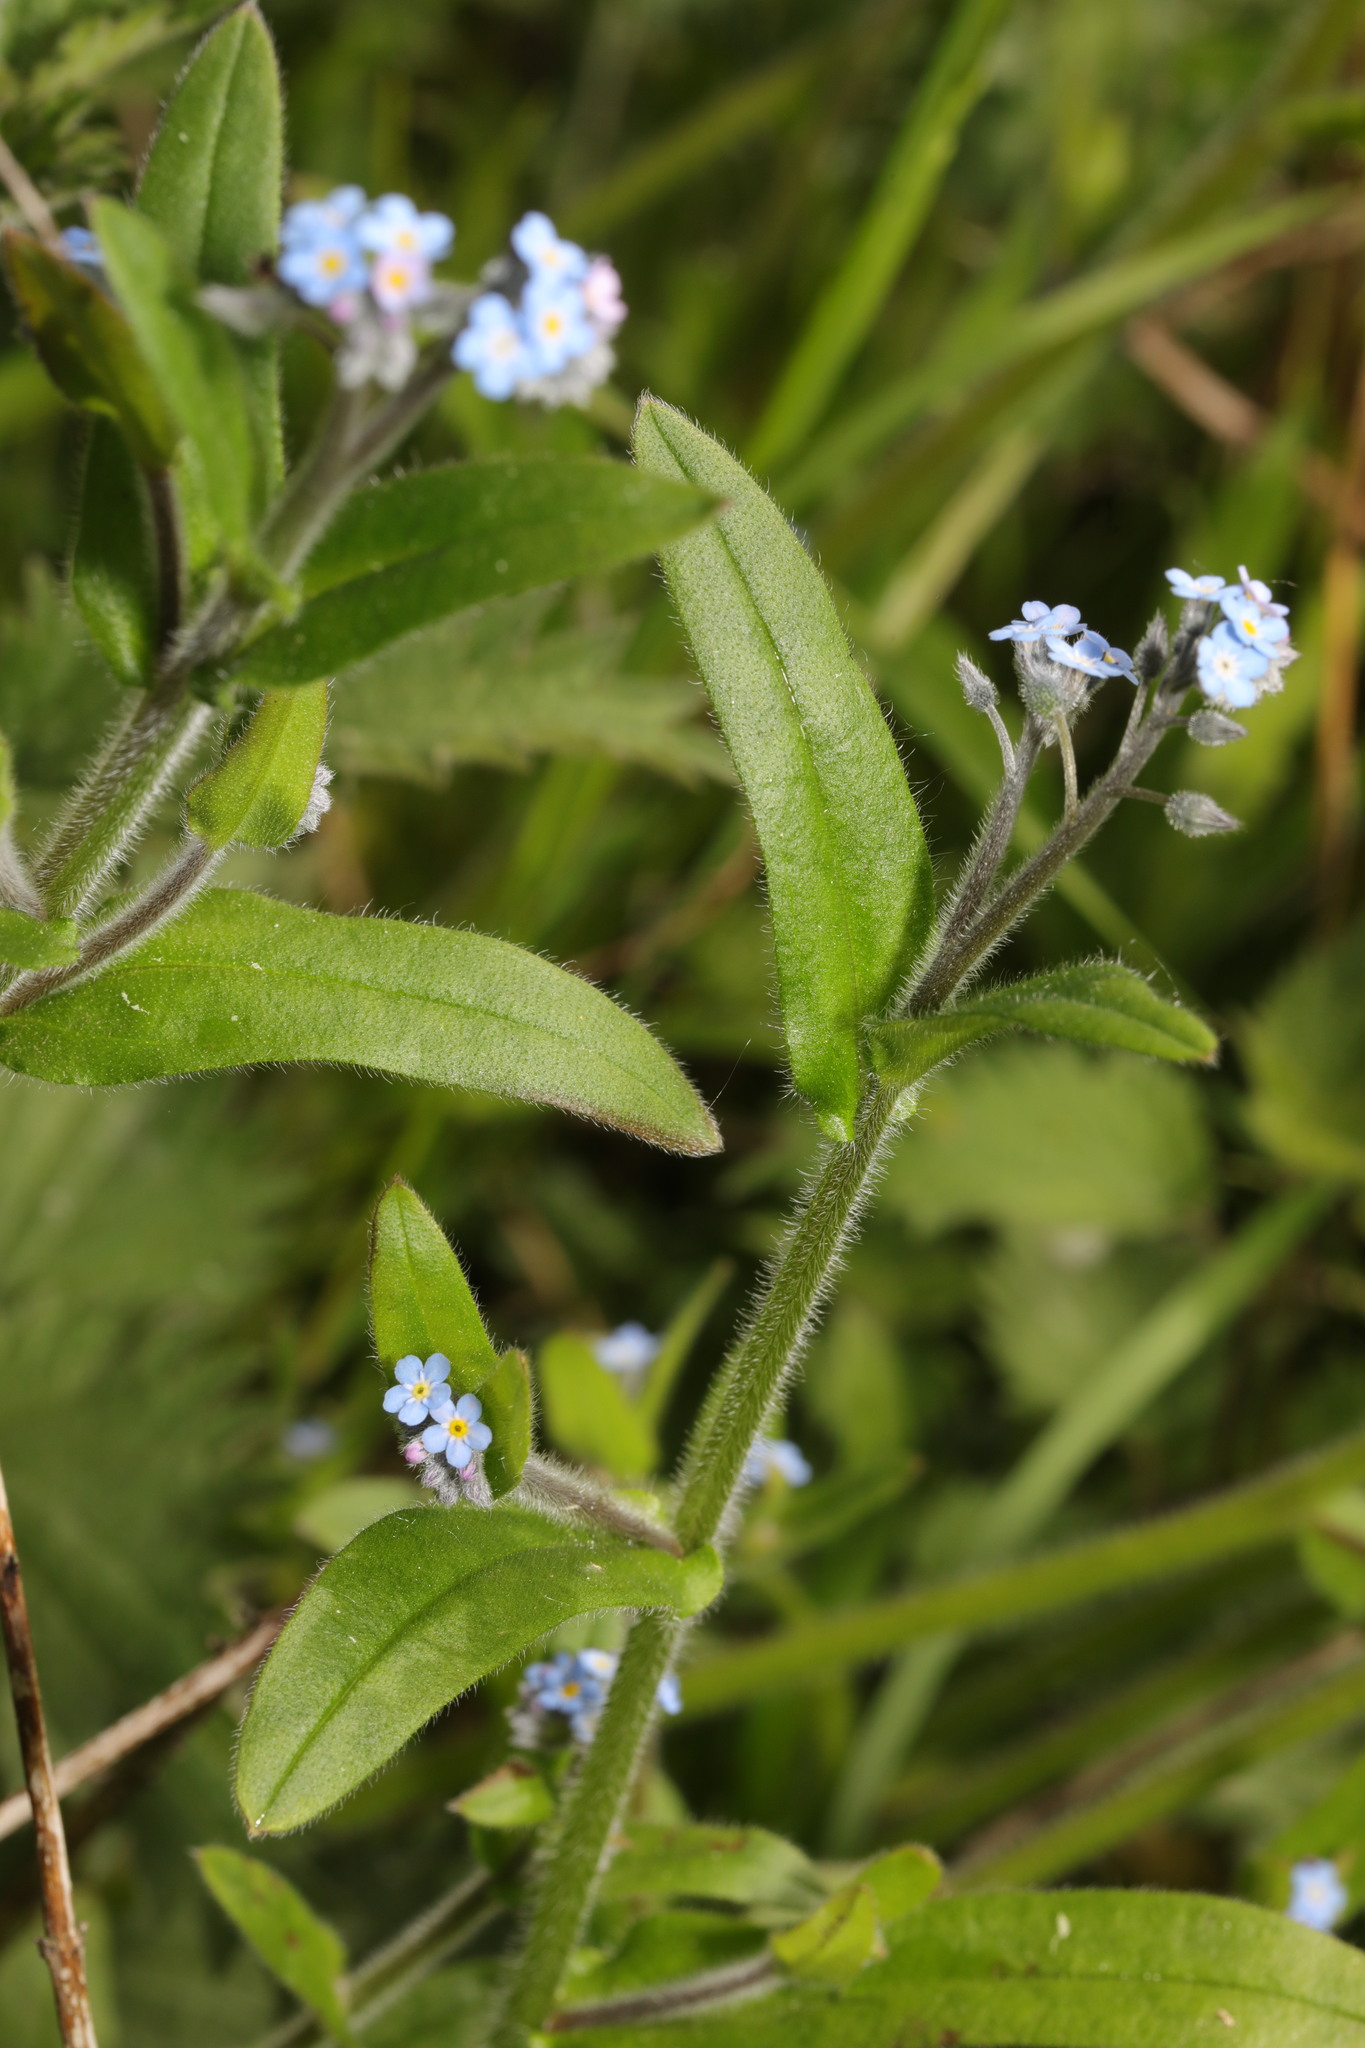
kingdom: Plantae
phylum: Tracheophyta
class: Magnoliopsida
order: Boraginales
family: Boraginaceae
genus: Myosotis
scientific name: Myosotis arvensis
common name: Field forget-me-not
